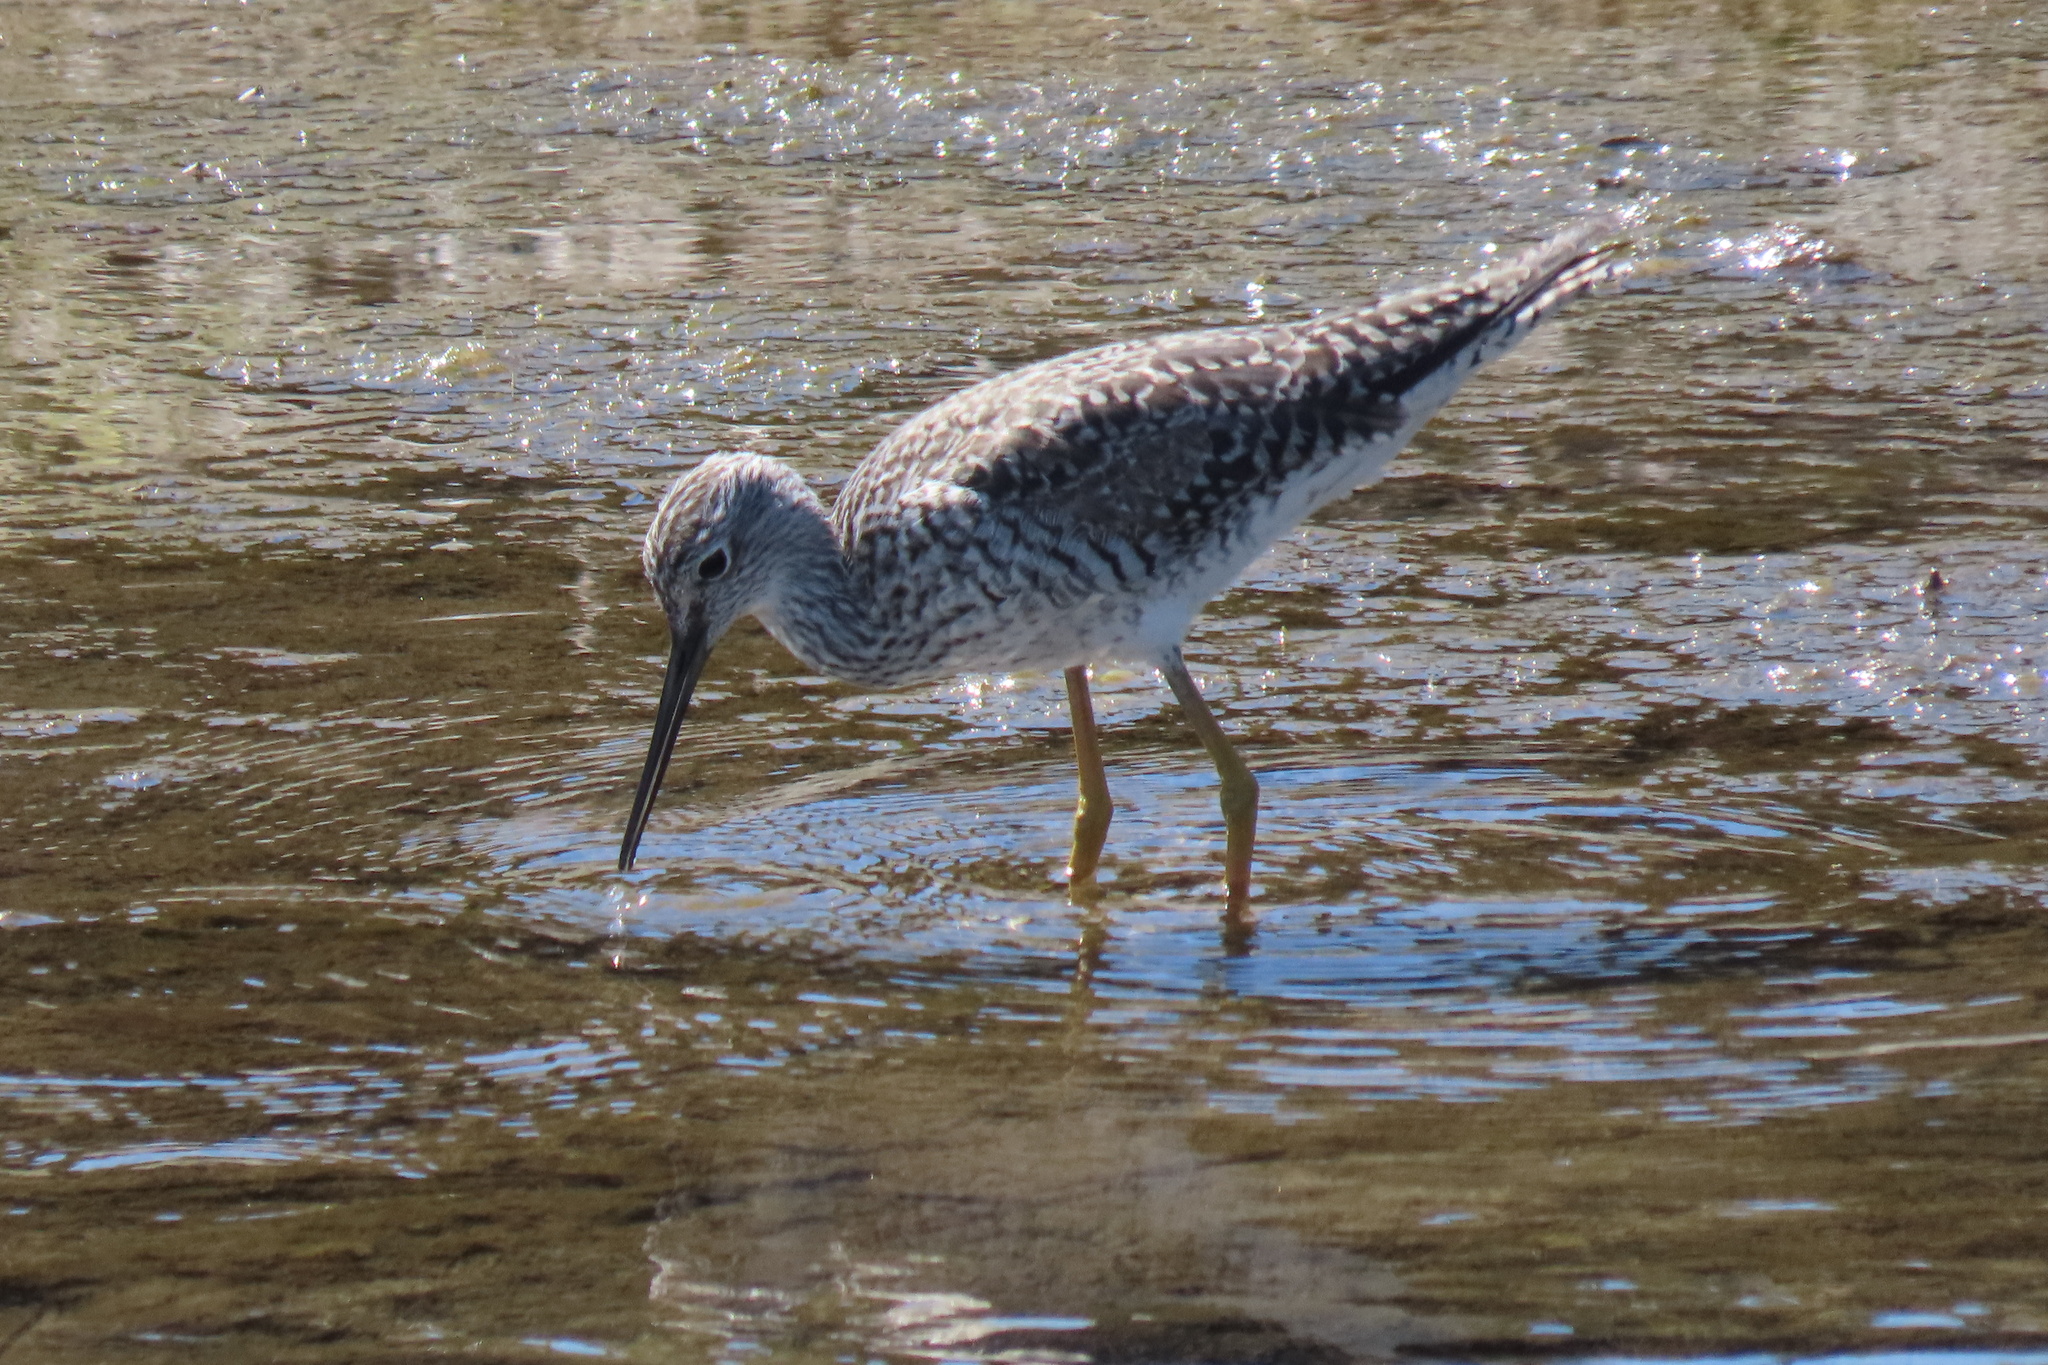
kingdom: Animalia
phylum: Chordata
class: Aves
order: Charadriiformes
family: Scolopacidae
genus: Tringa
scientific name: Tringa melanoleuca
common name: Greater yellowlegs
